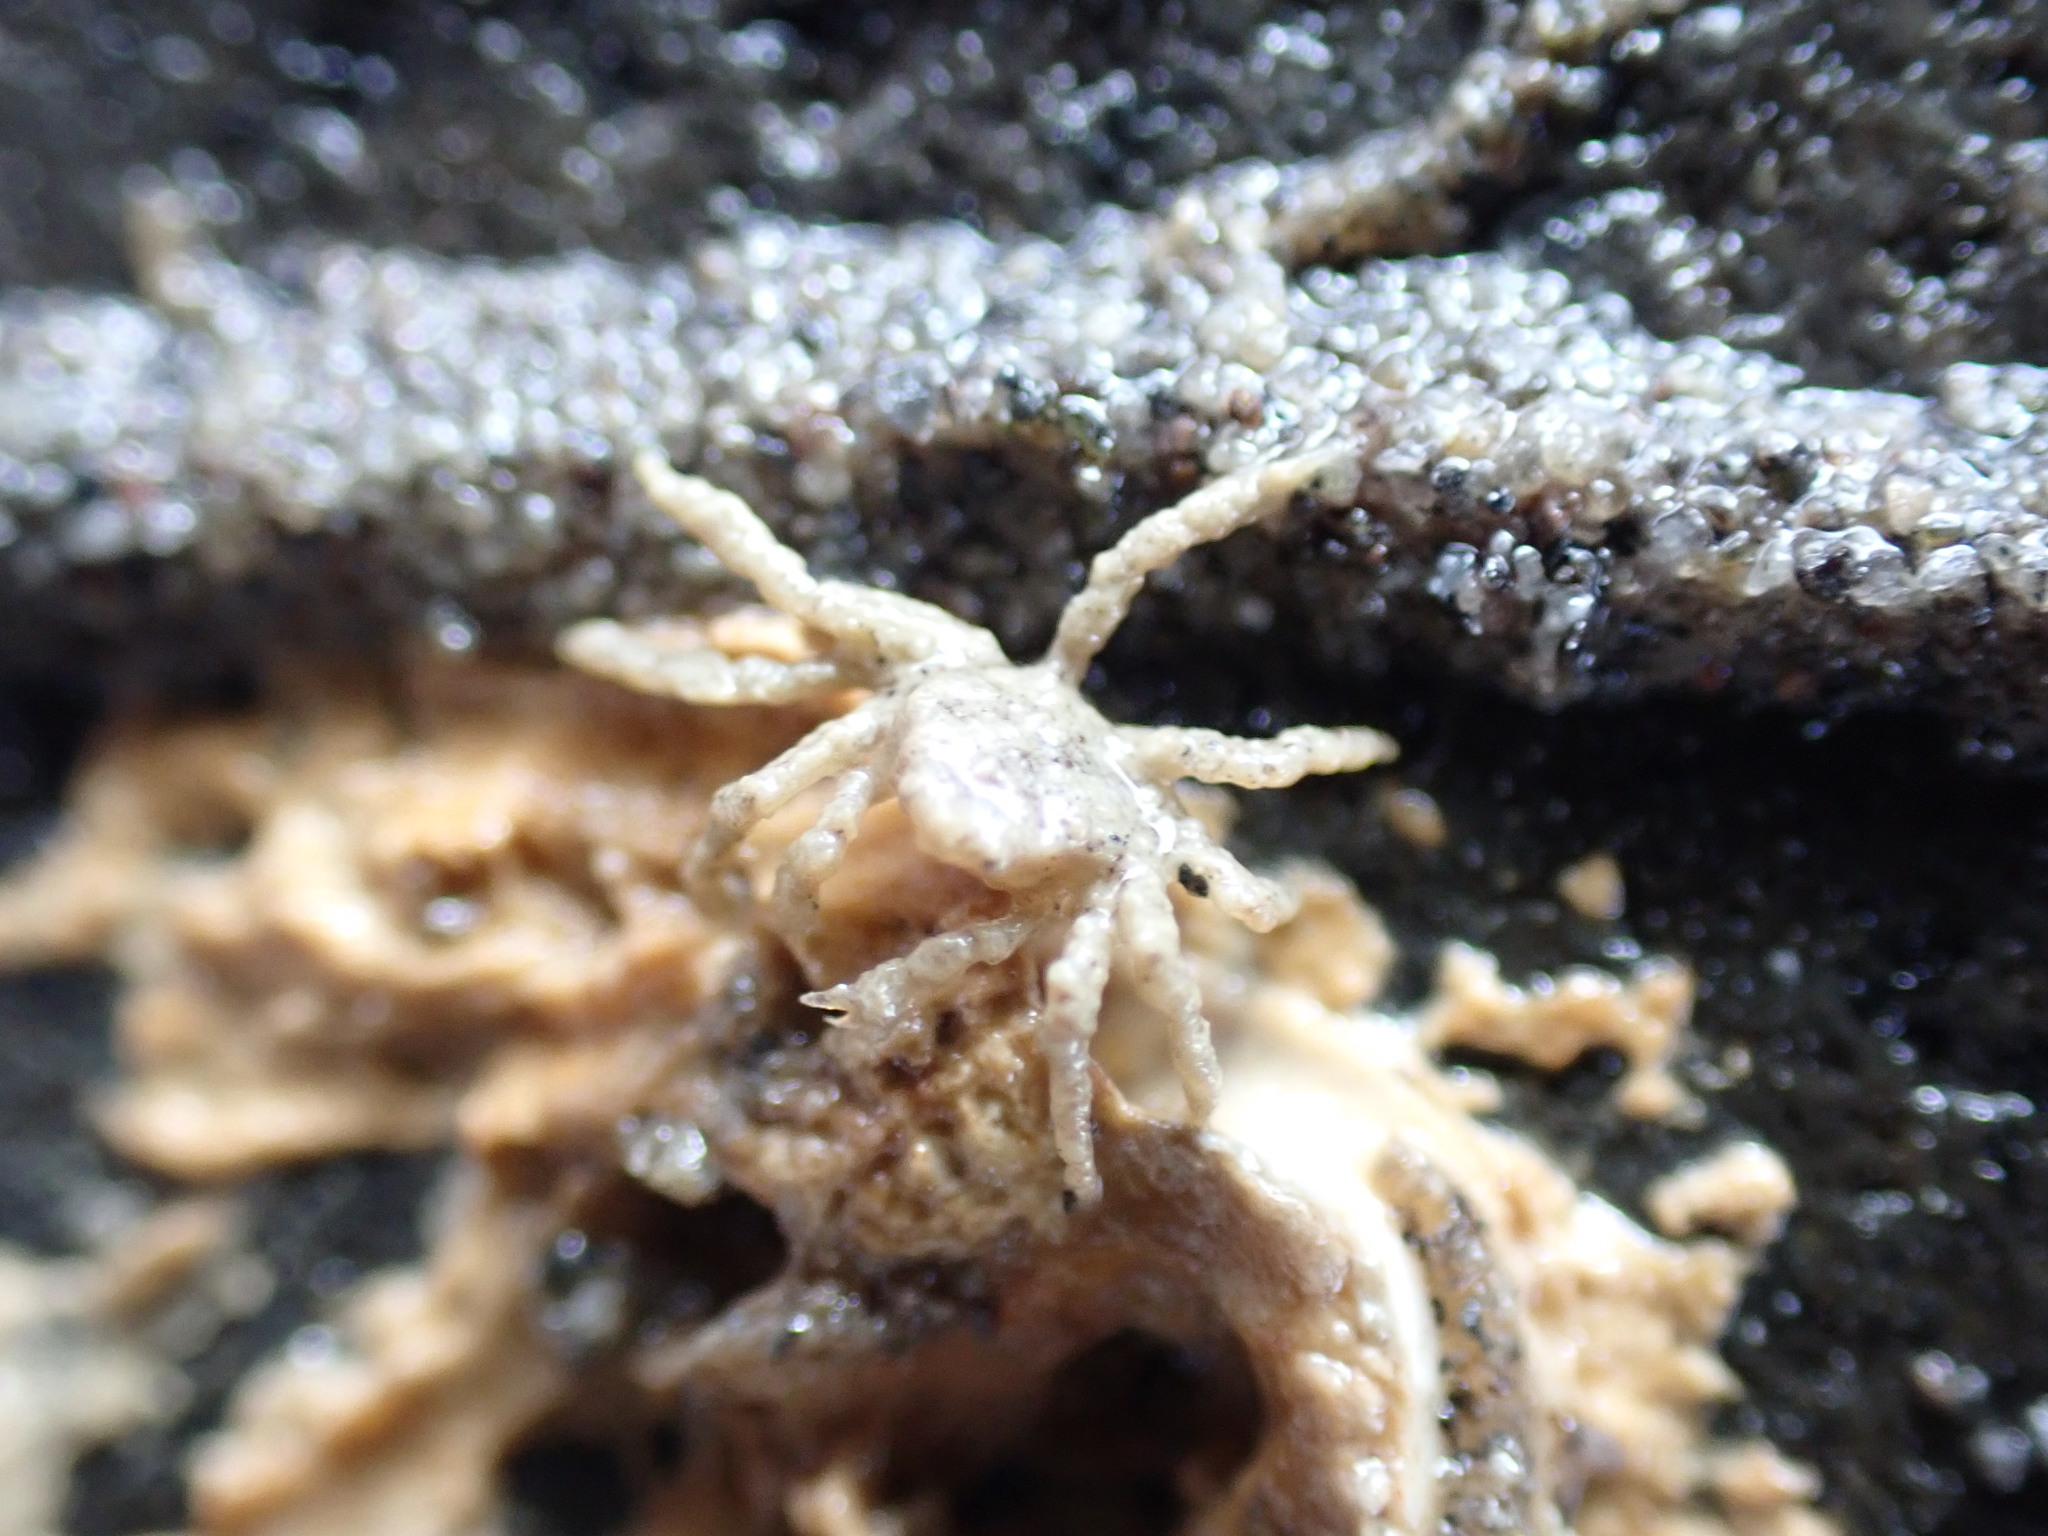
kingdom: Animalia
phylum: Arthropoda
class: Malacostraca
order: Decapoda
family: Hymenosomatidae
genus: Neohymenicus
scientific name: Neohymenicus pubescens
